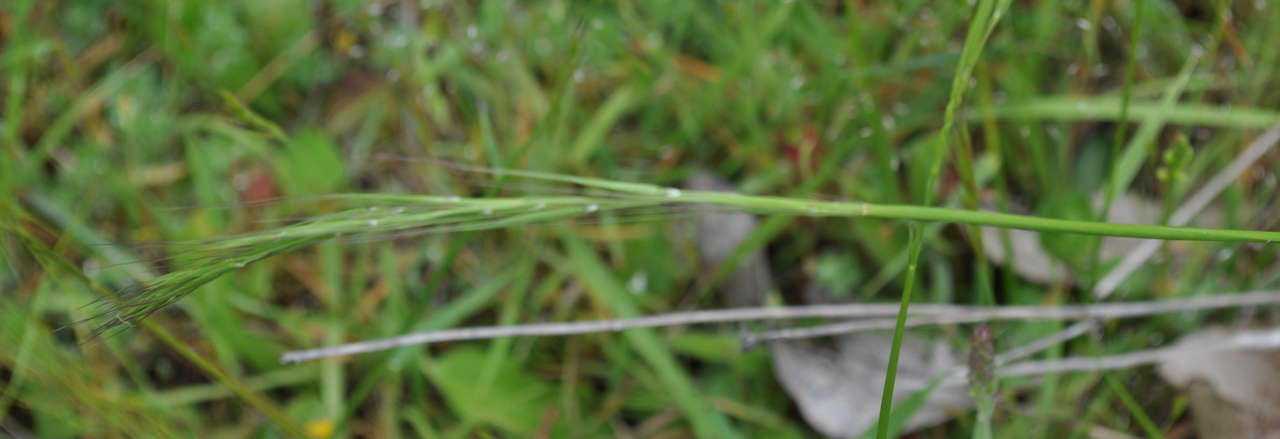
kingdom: Plantae
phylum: Tracheophyta
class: Liliopsida
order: Poales
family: Poaceae
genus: Microlaena
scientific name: Microlaena stipoides
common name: Meadow ricegrass
